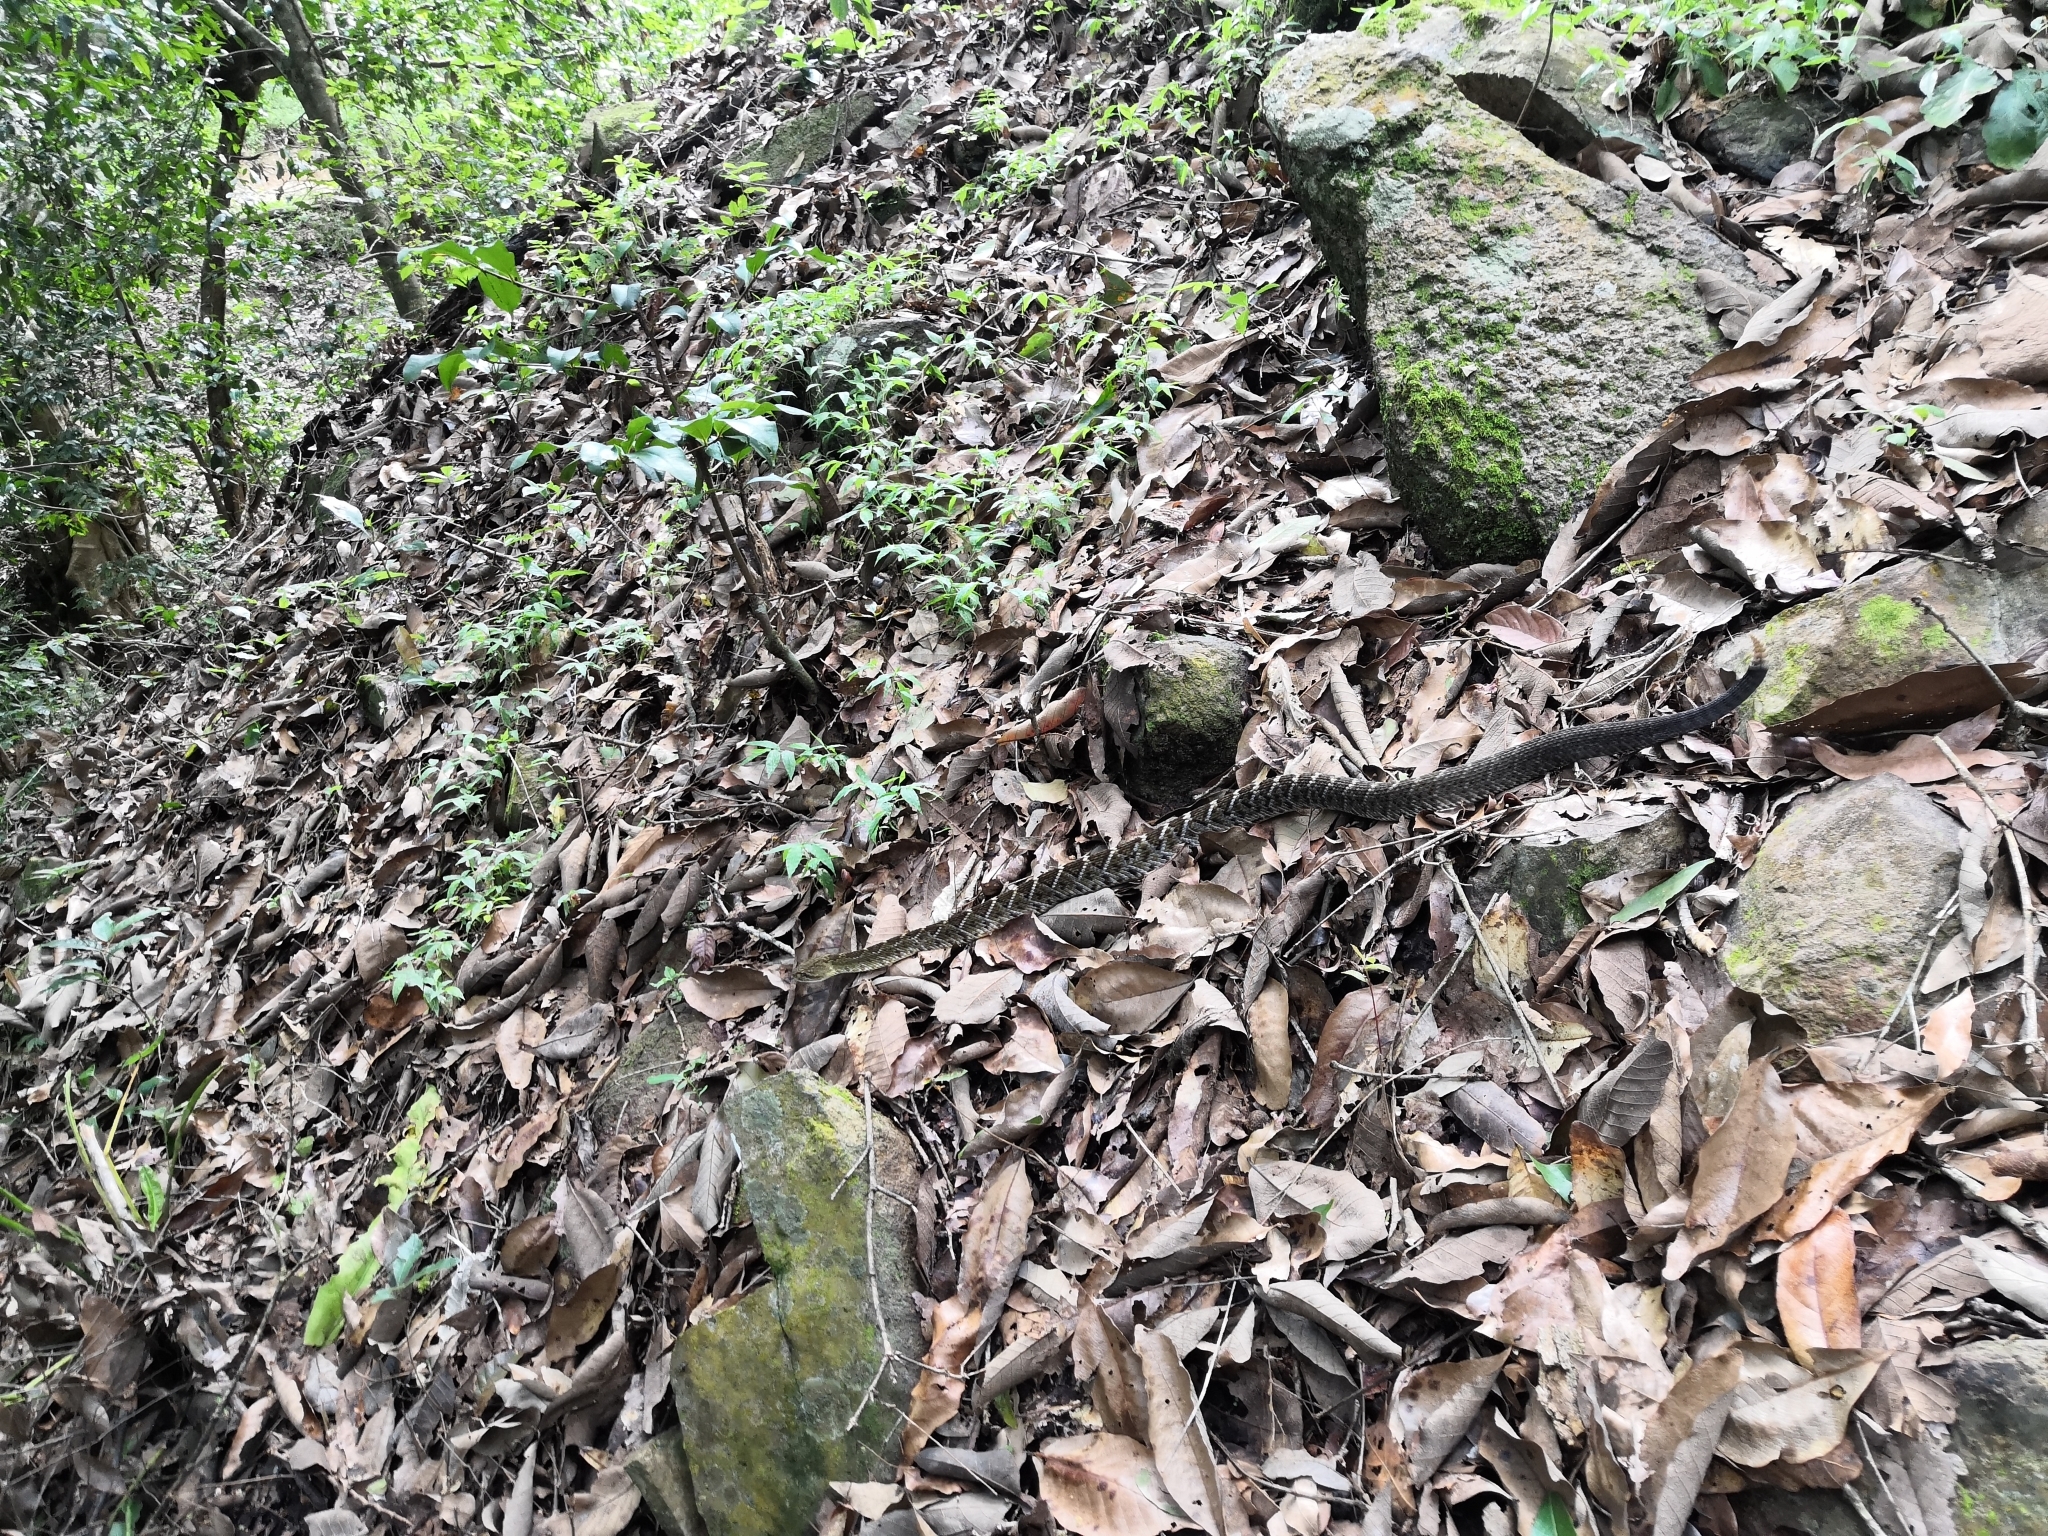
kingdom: Animalia
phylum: Chordata
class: Squamata
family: Viperidae
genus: Crotalus
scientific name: Crotalus basiliscus
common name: Basilisk rattlesnake
